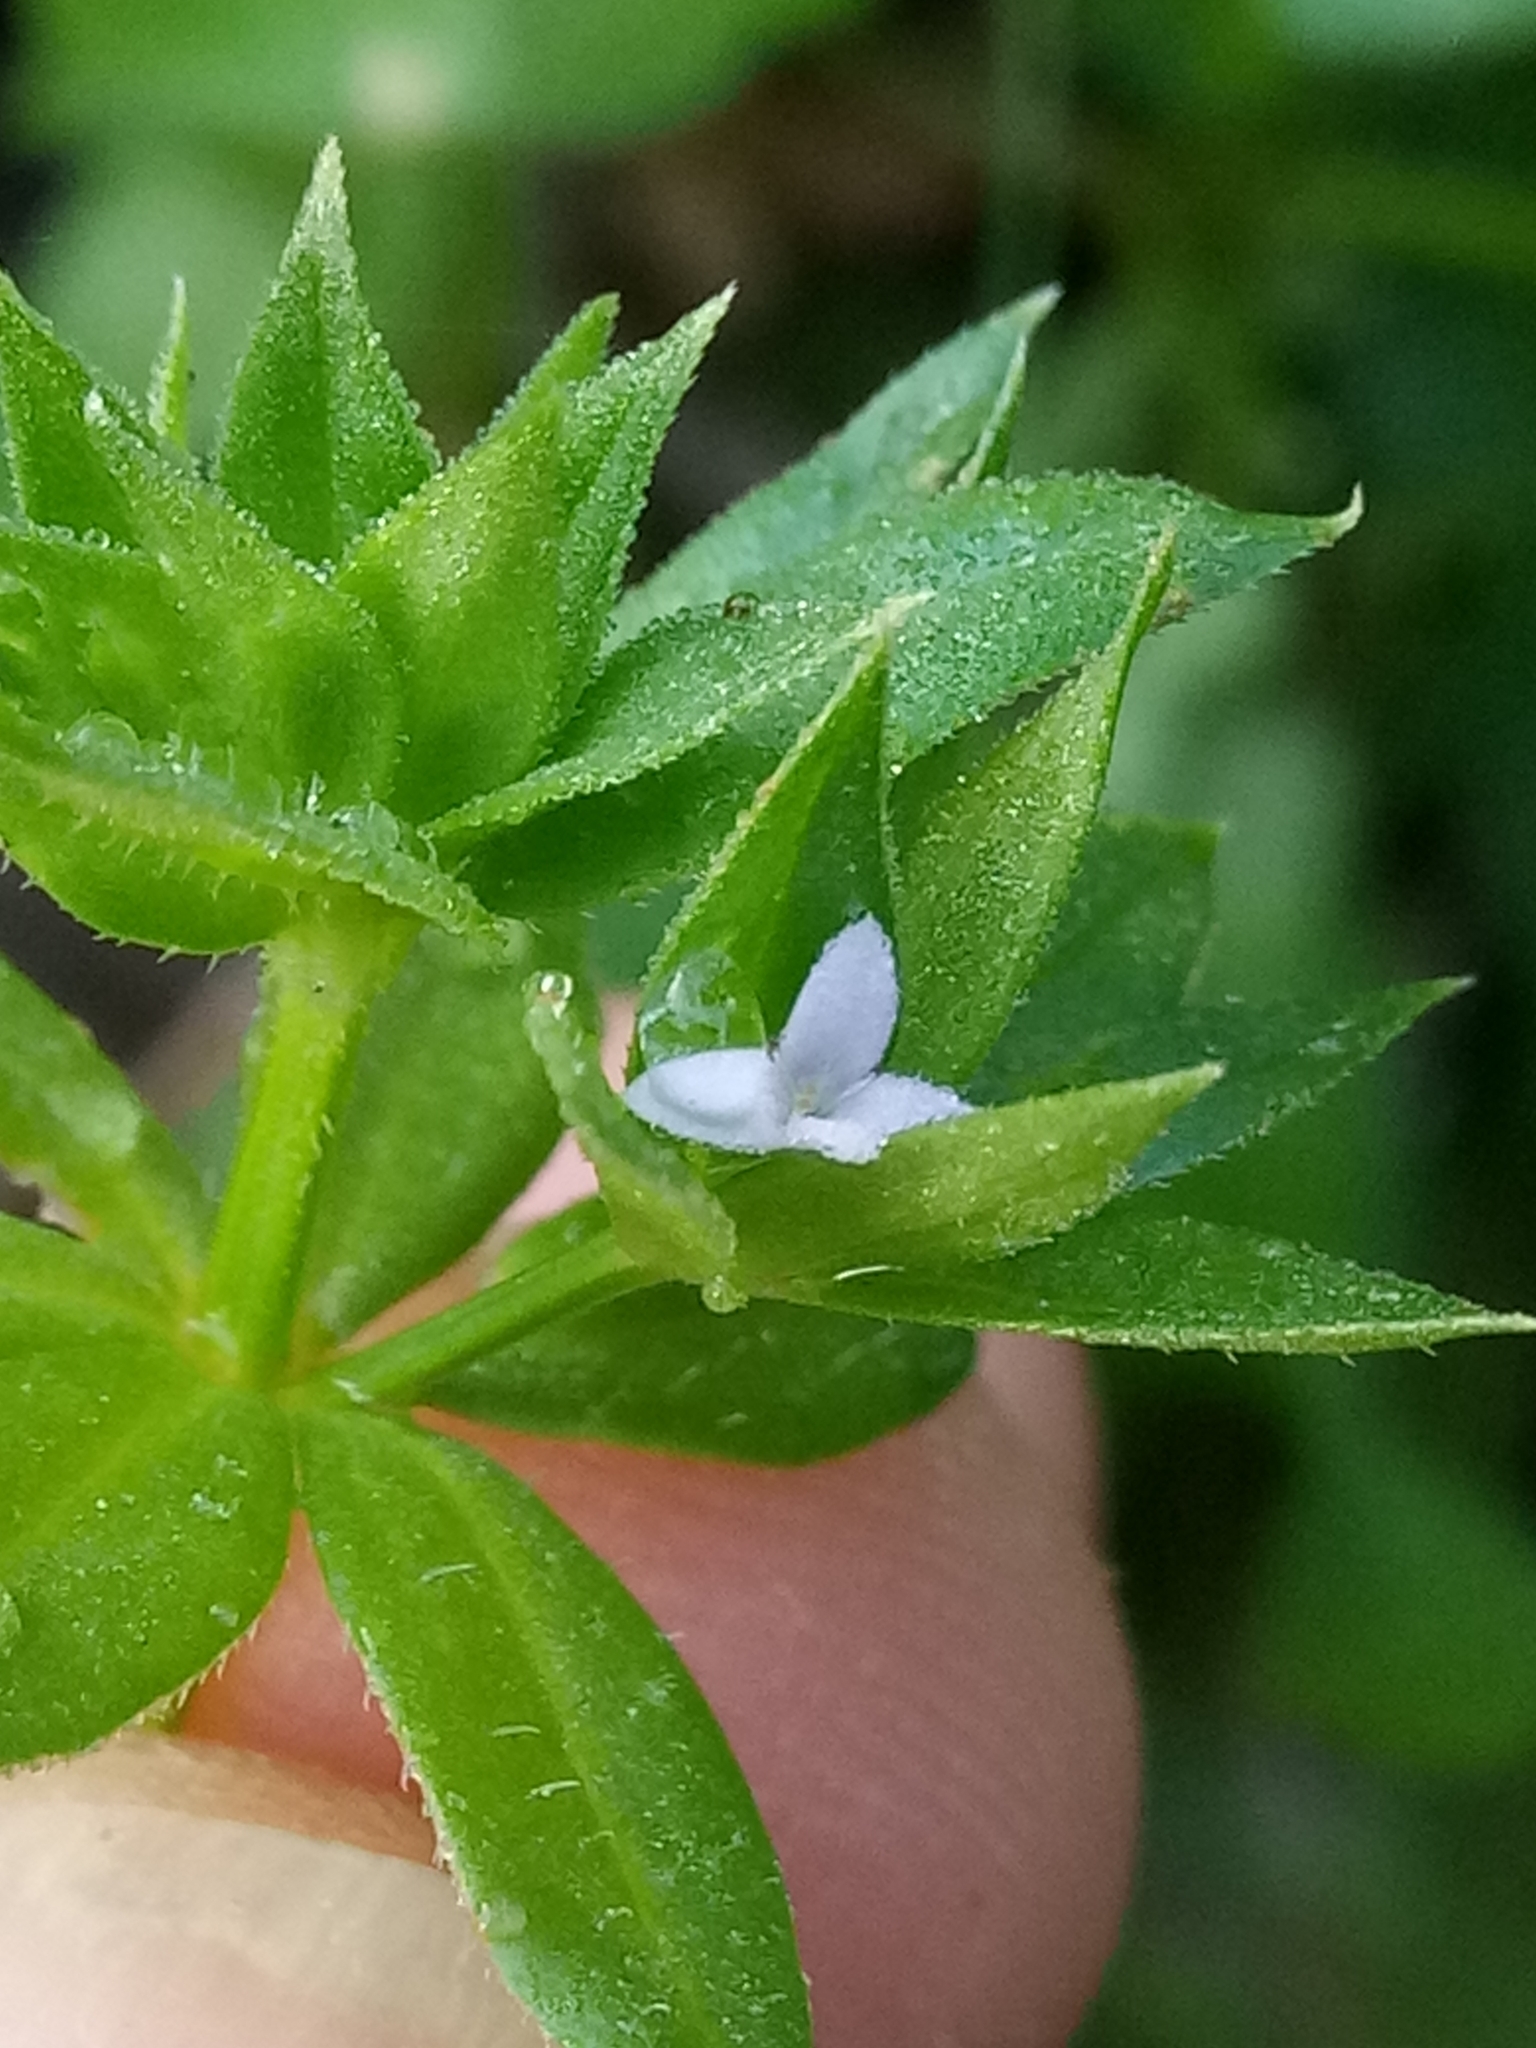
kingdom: Plantae
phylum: Tracheophyta
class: Magnoliopsida
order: Gentianales
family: Rubiaceae
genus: Sherardia
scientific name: Sherardia arvensis
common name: Field madder
